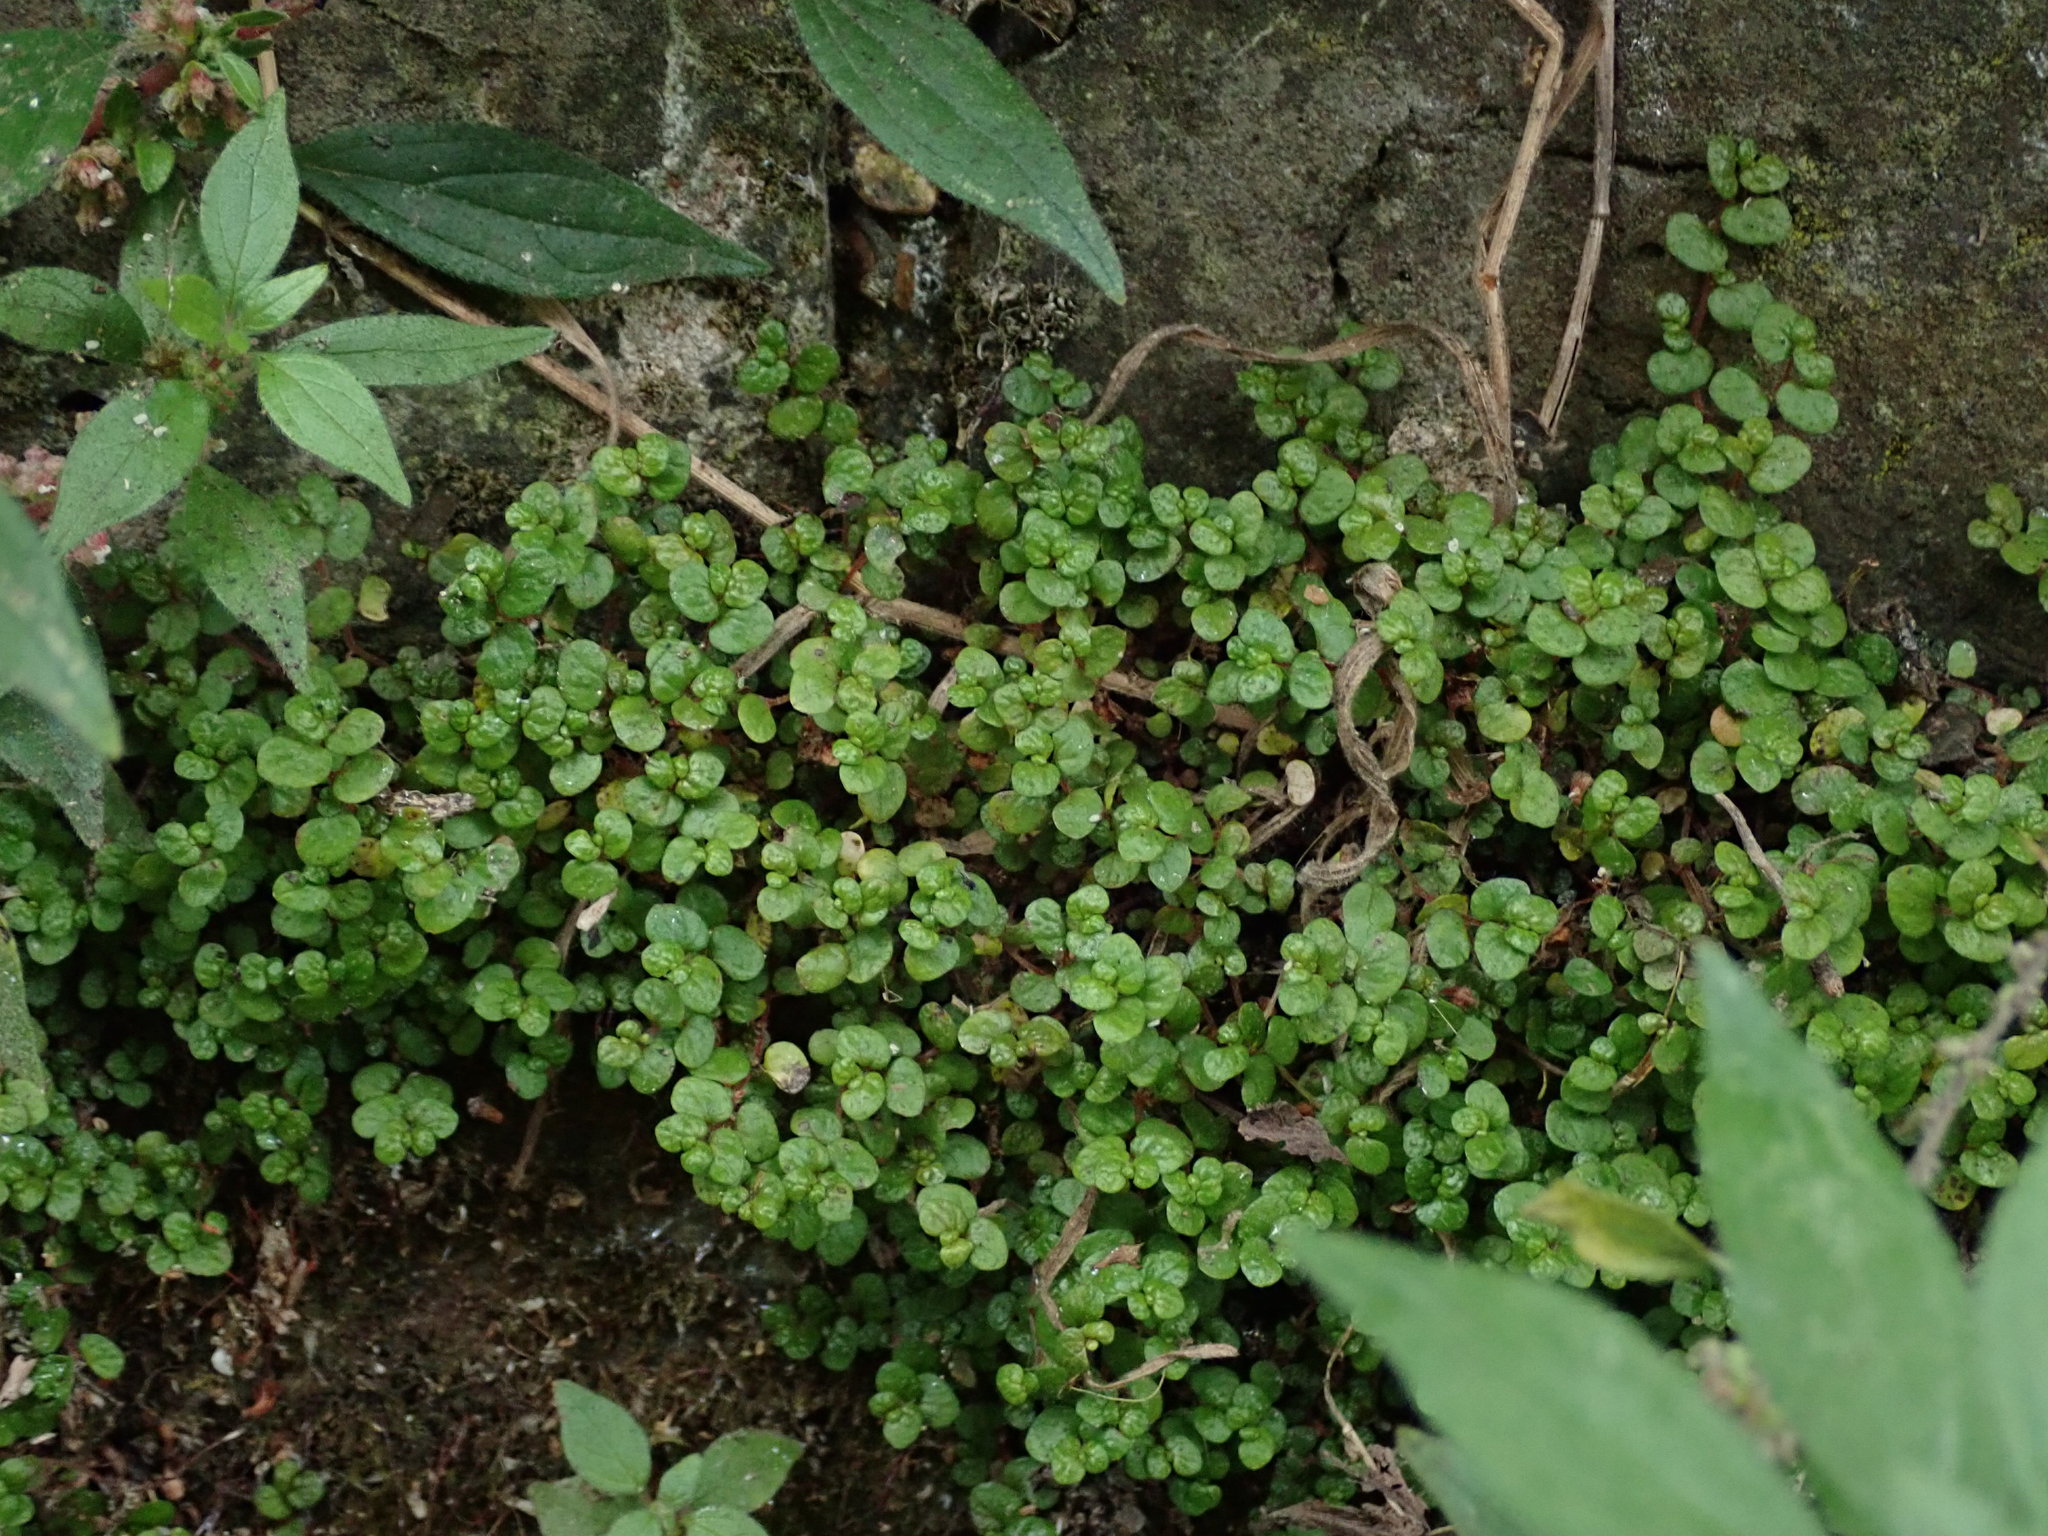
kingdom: Plantae
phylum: Tracheophyta
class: Magnoliopsida
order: Rosales
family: Urticaceae
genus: Soleirolia
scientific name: Soleirolia soleirolii
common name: Mind-your-own-business
